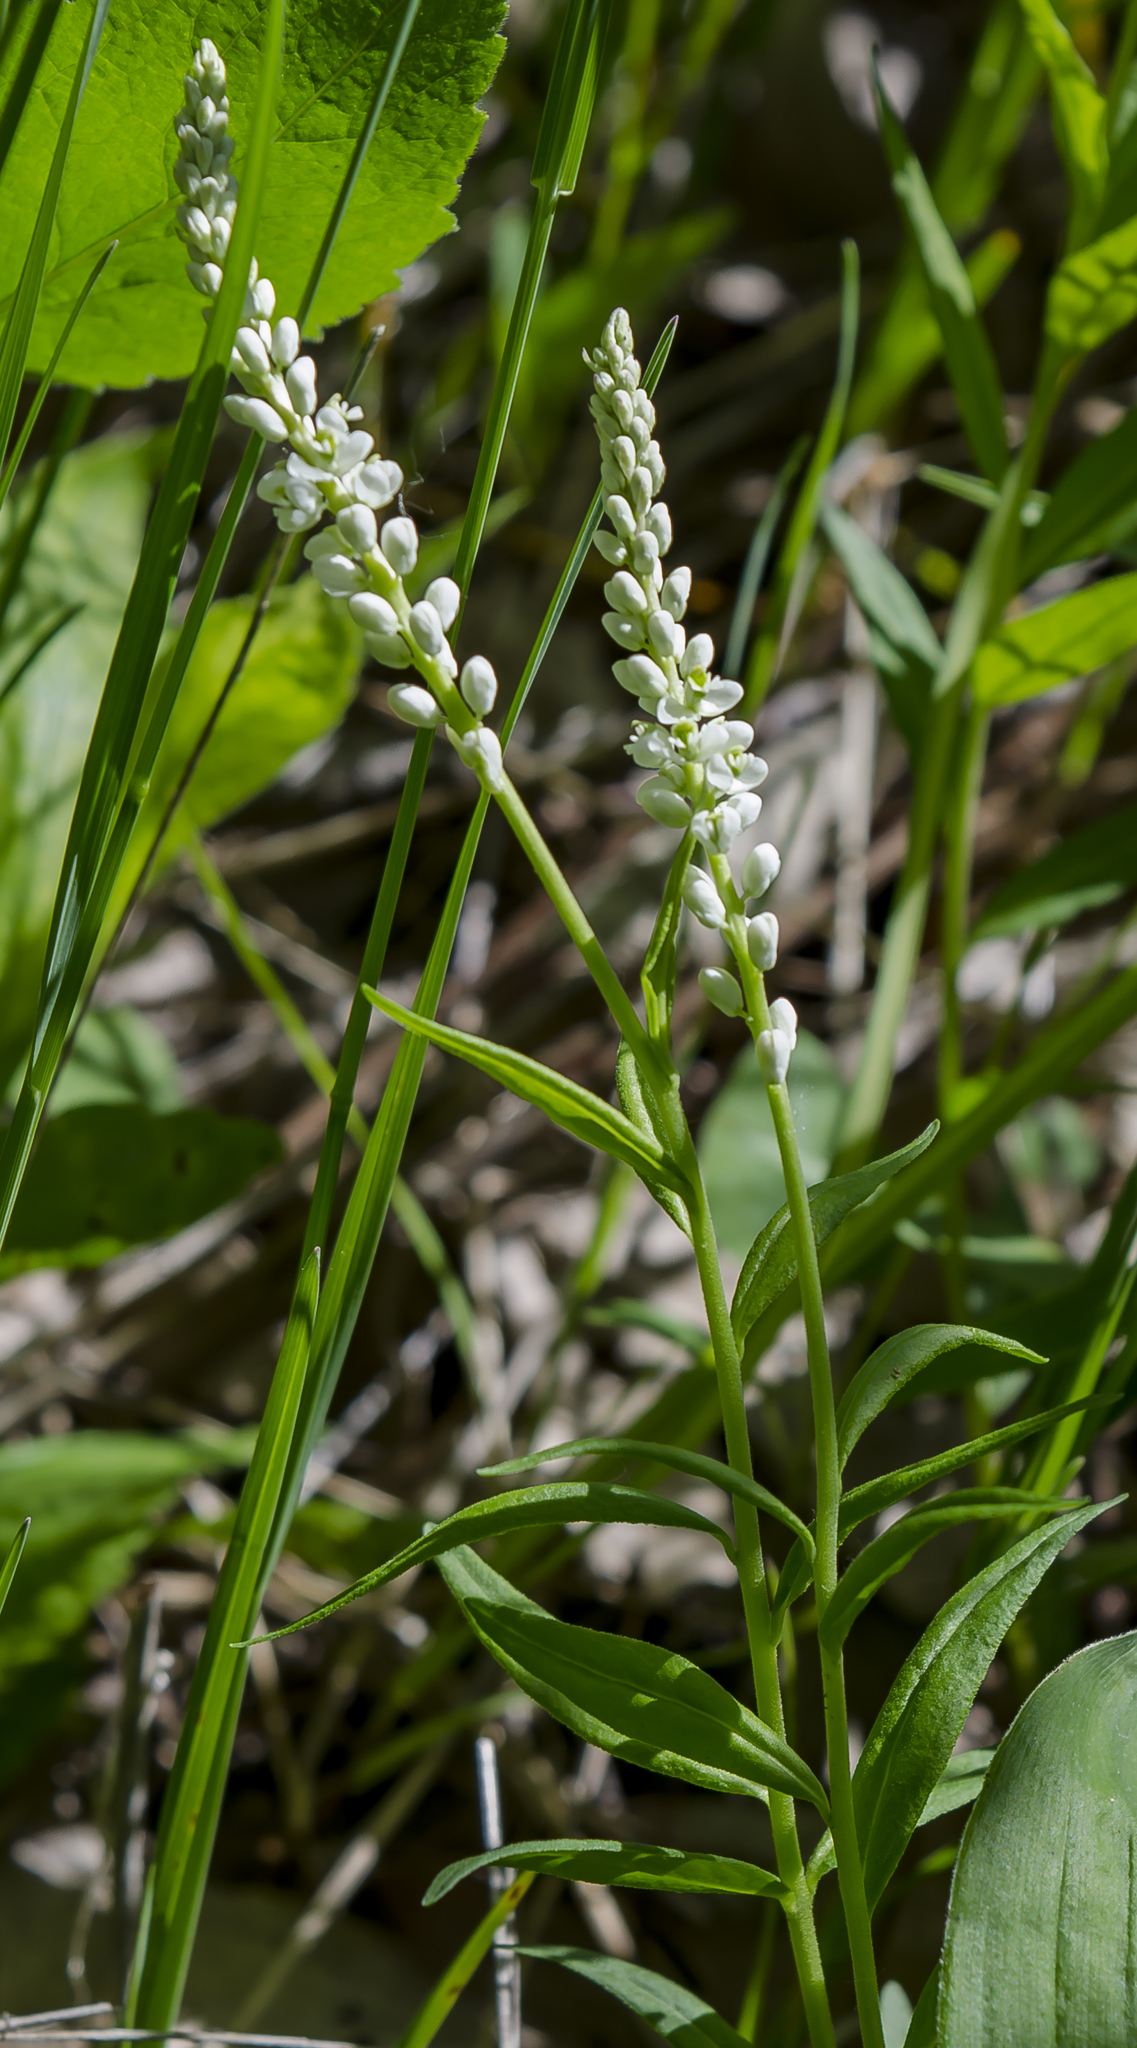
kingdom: Plantae
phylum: Tracheophyta
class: Magnoliopsida
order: Fabales
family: Polygalaceae
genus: Polygala
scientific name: Polygala senega
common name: Seneca snakeroot
